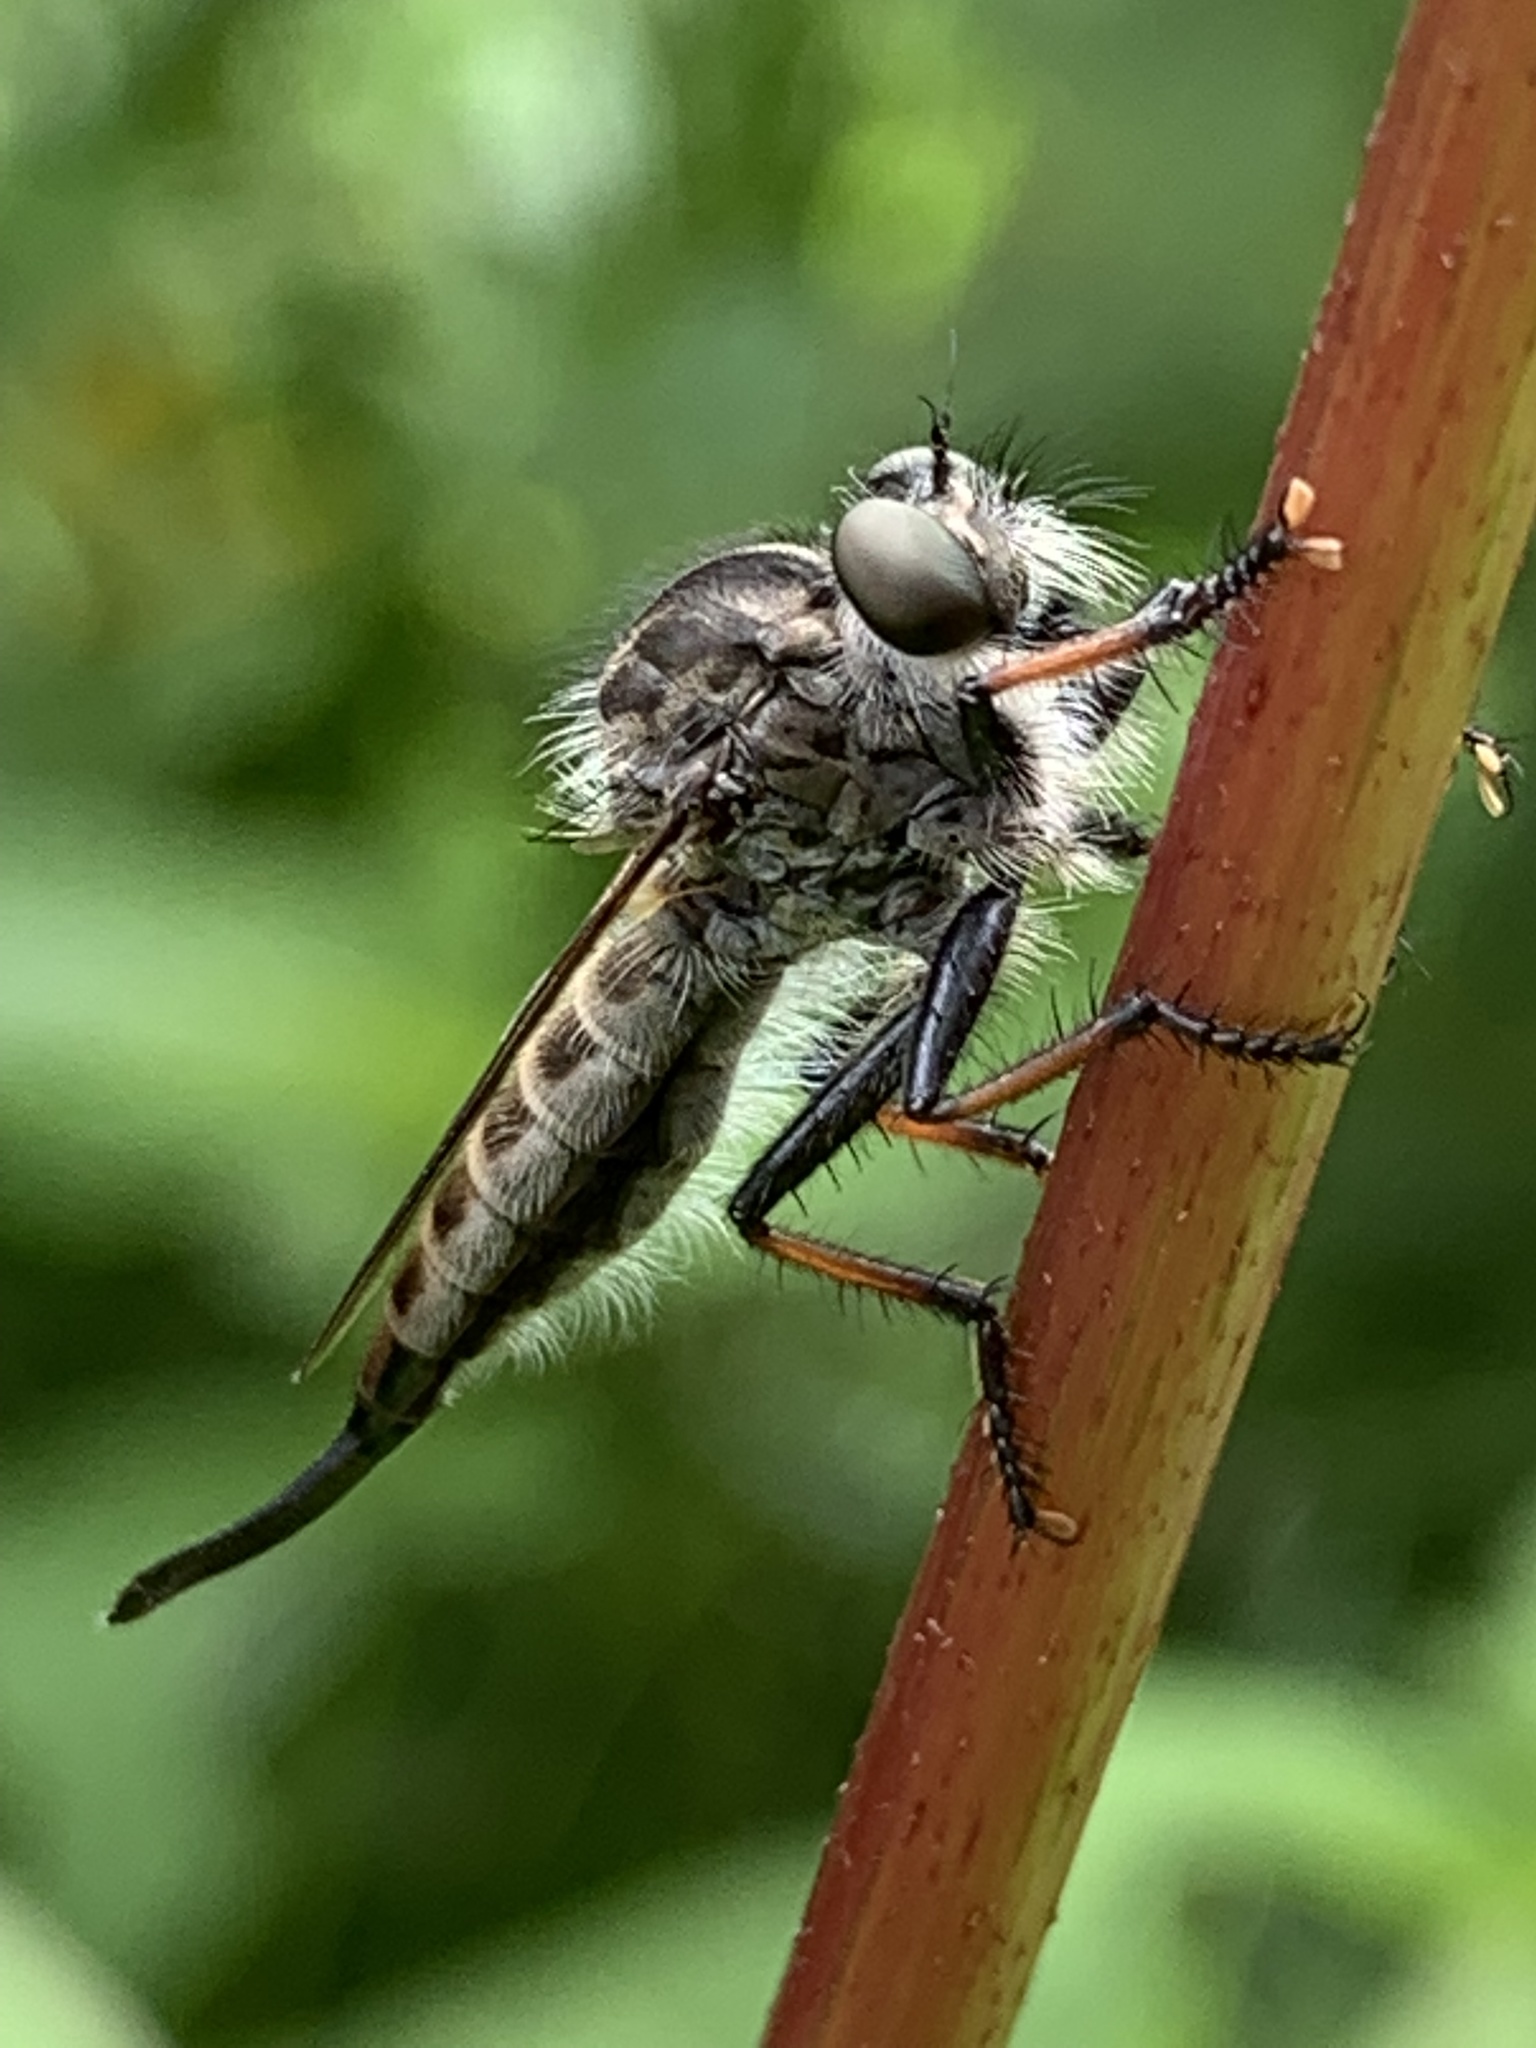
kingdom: Animalia
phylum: Arthropoda
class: Insecta
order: Diptera
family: Asilidae
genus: Efferia
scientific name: Efferia aestuans
